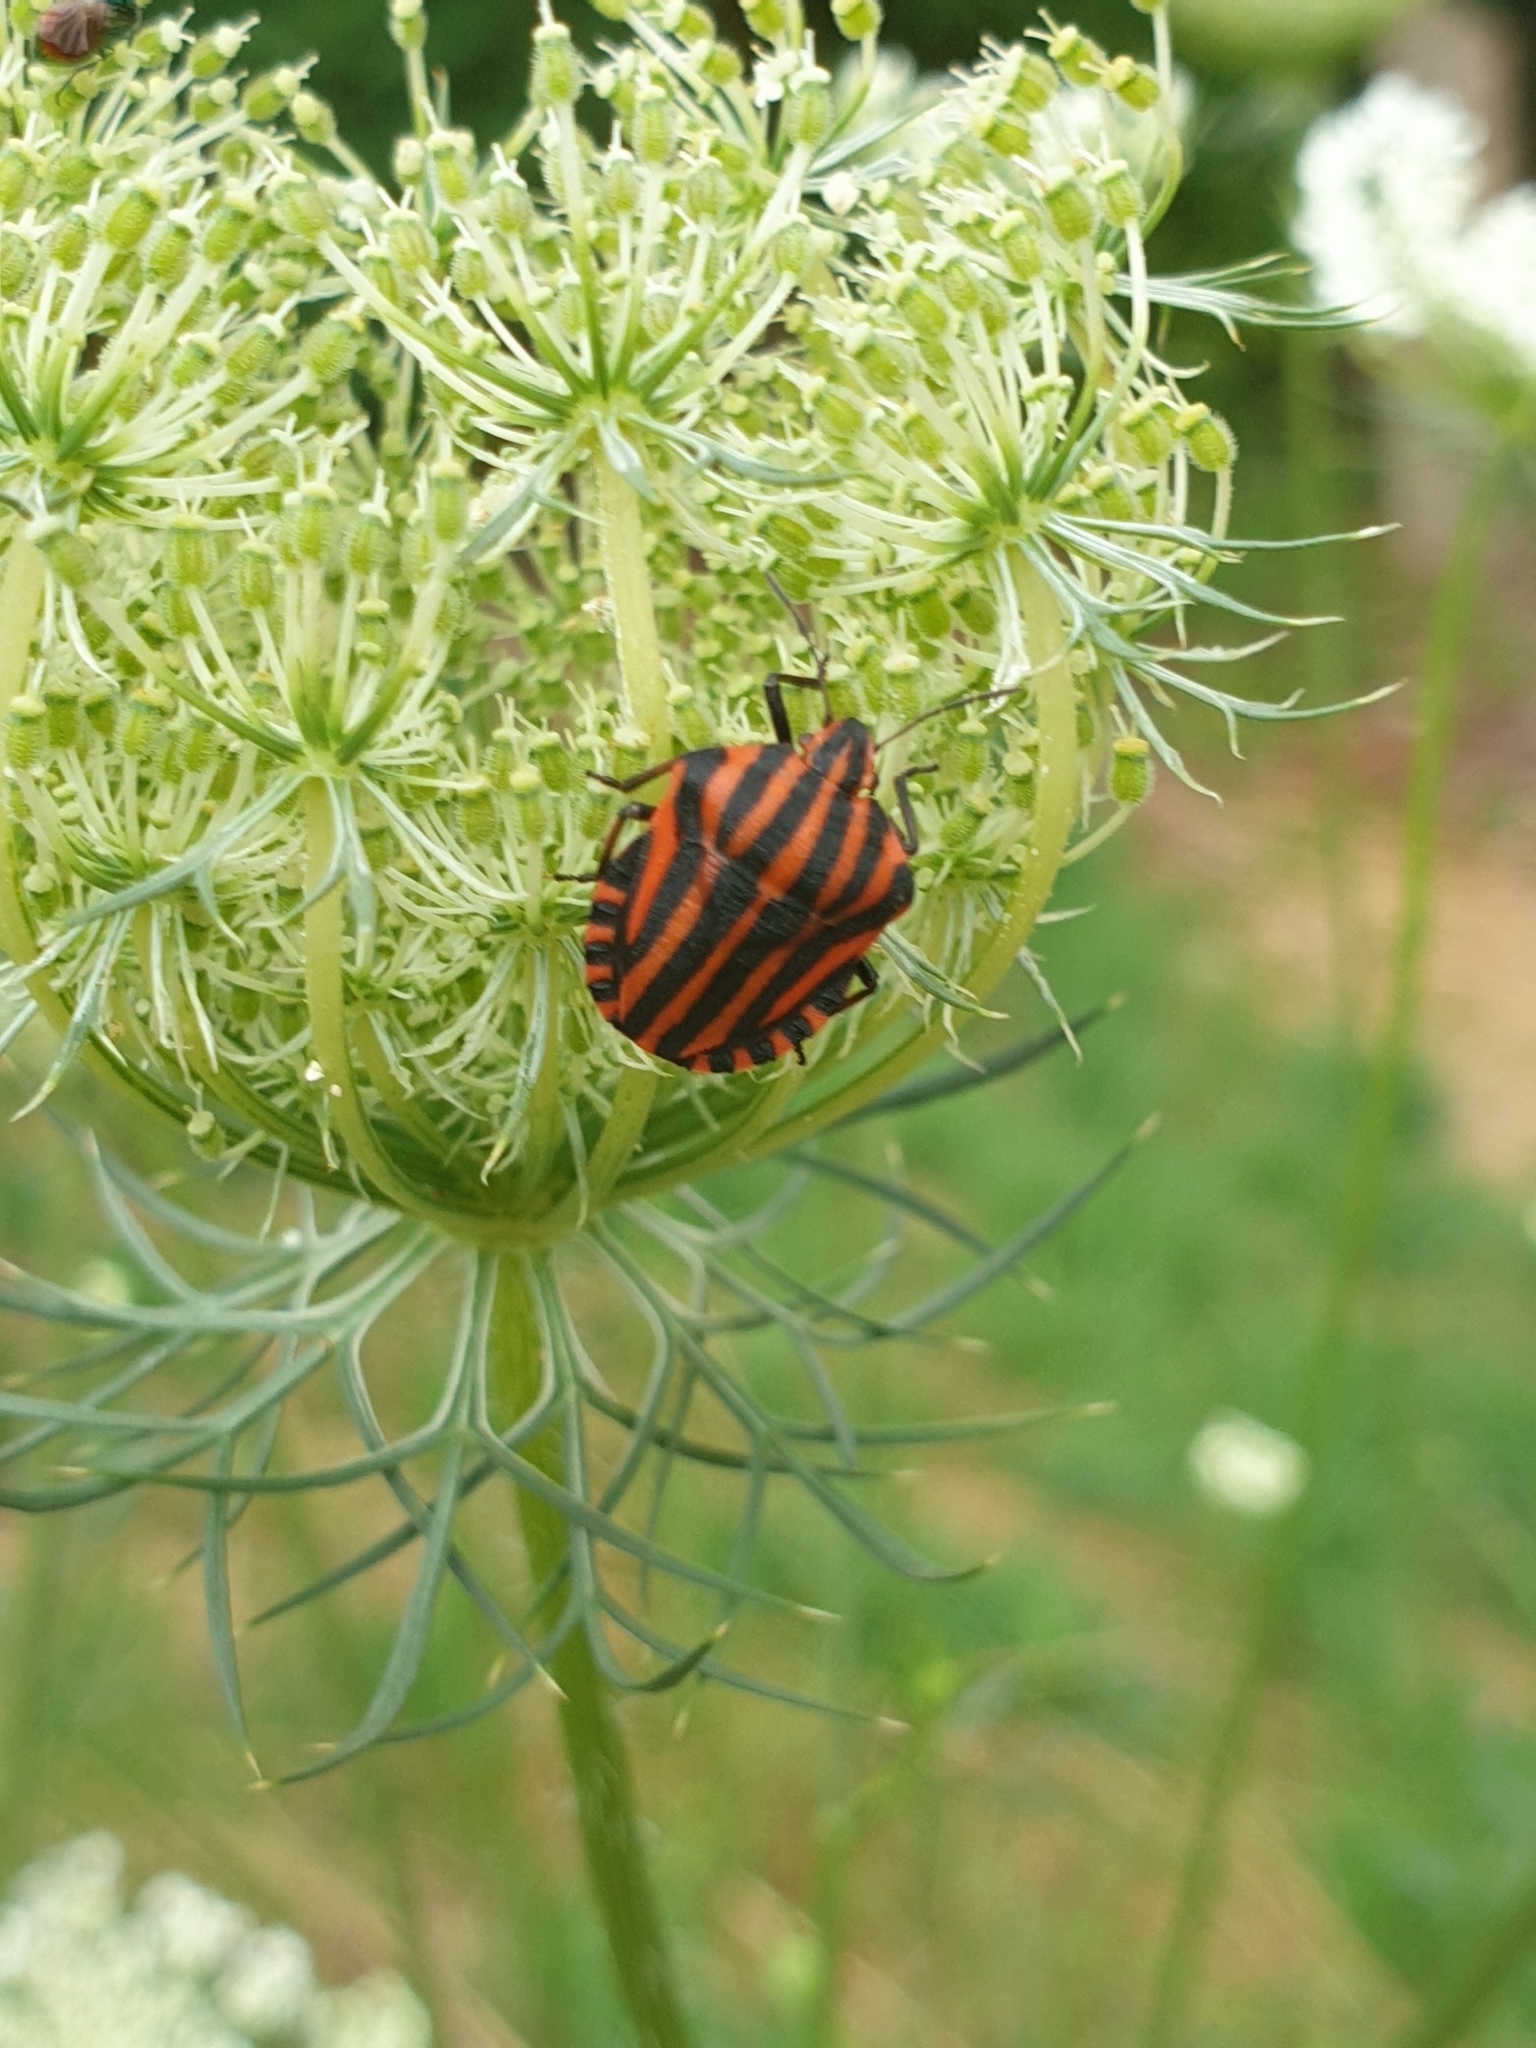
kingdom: Animalia
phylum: Arthropoda
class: Insecta
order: Hemiptera
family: Pentatomidae
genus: Graphosoma
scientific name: Graphosoma italicum
